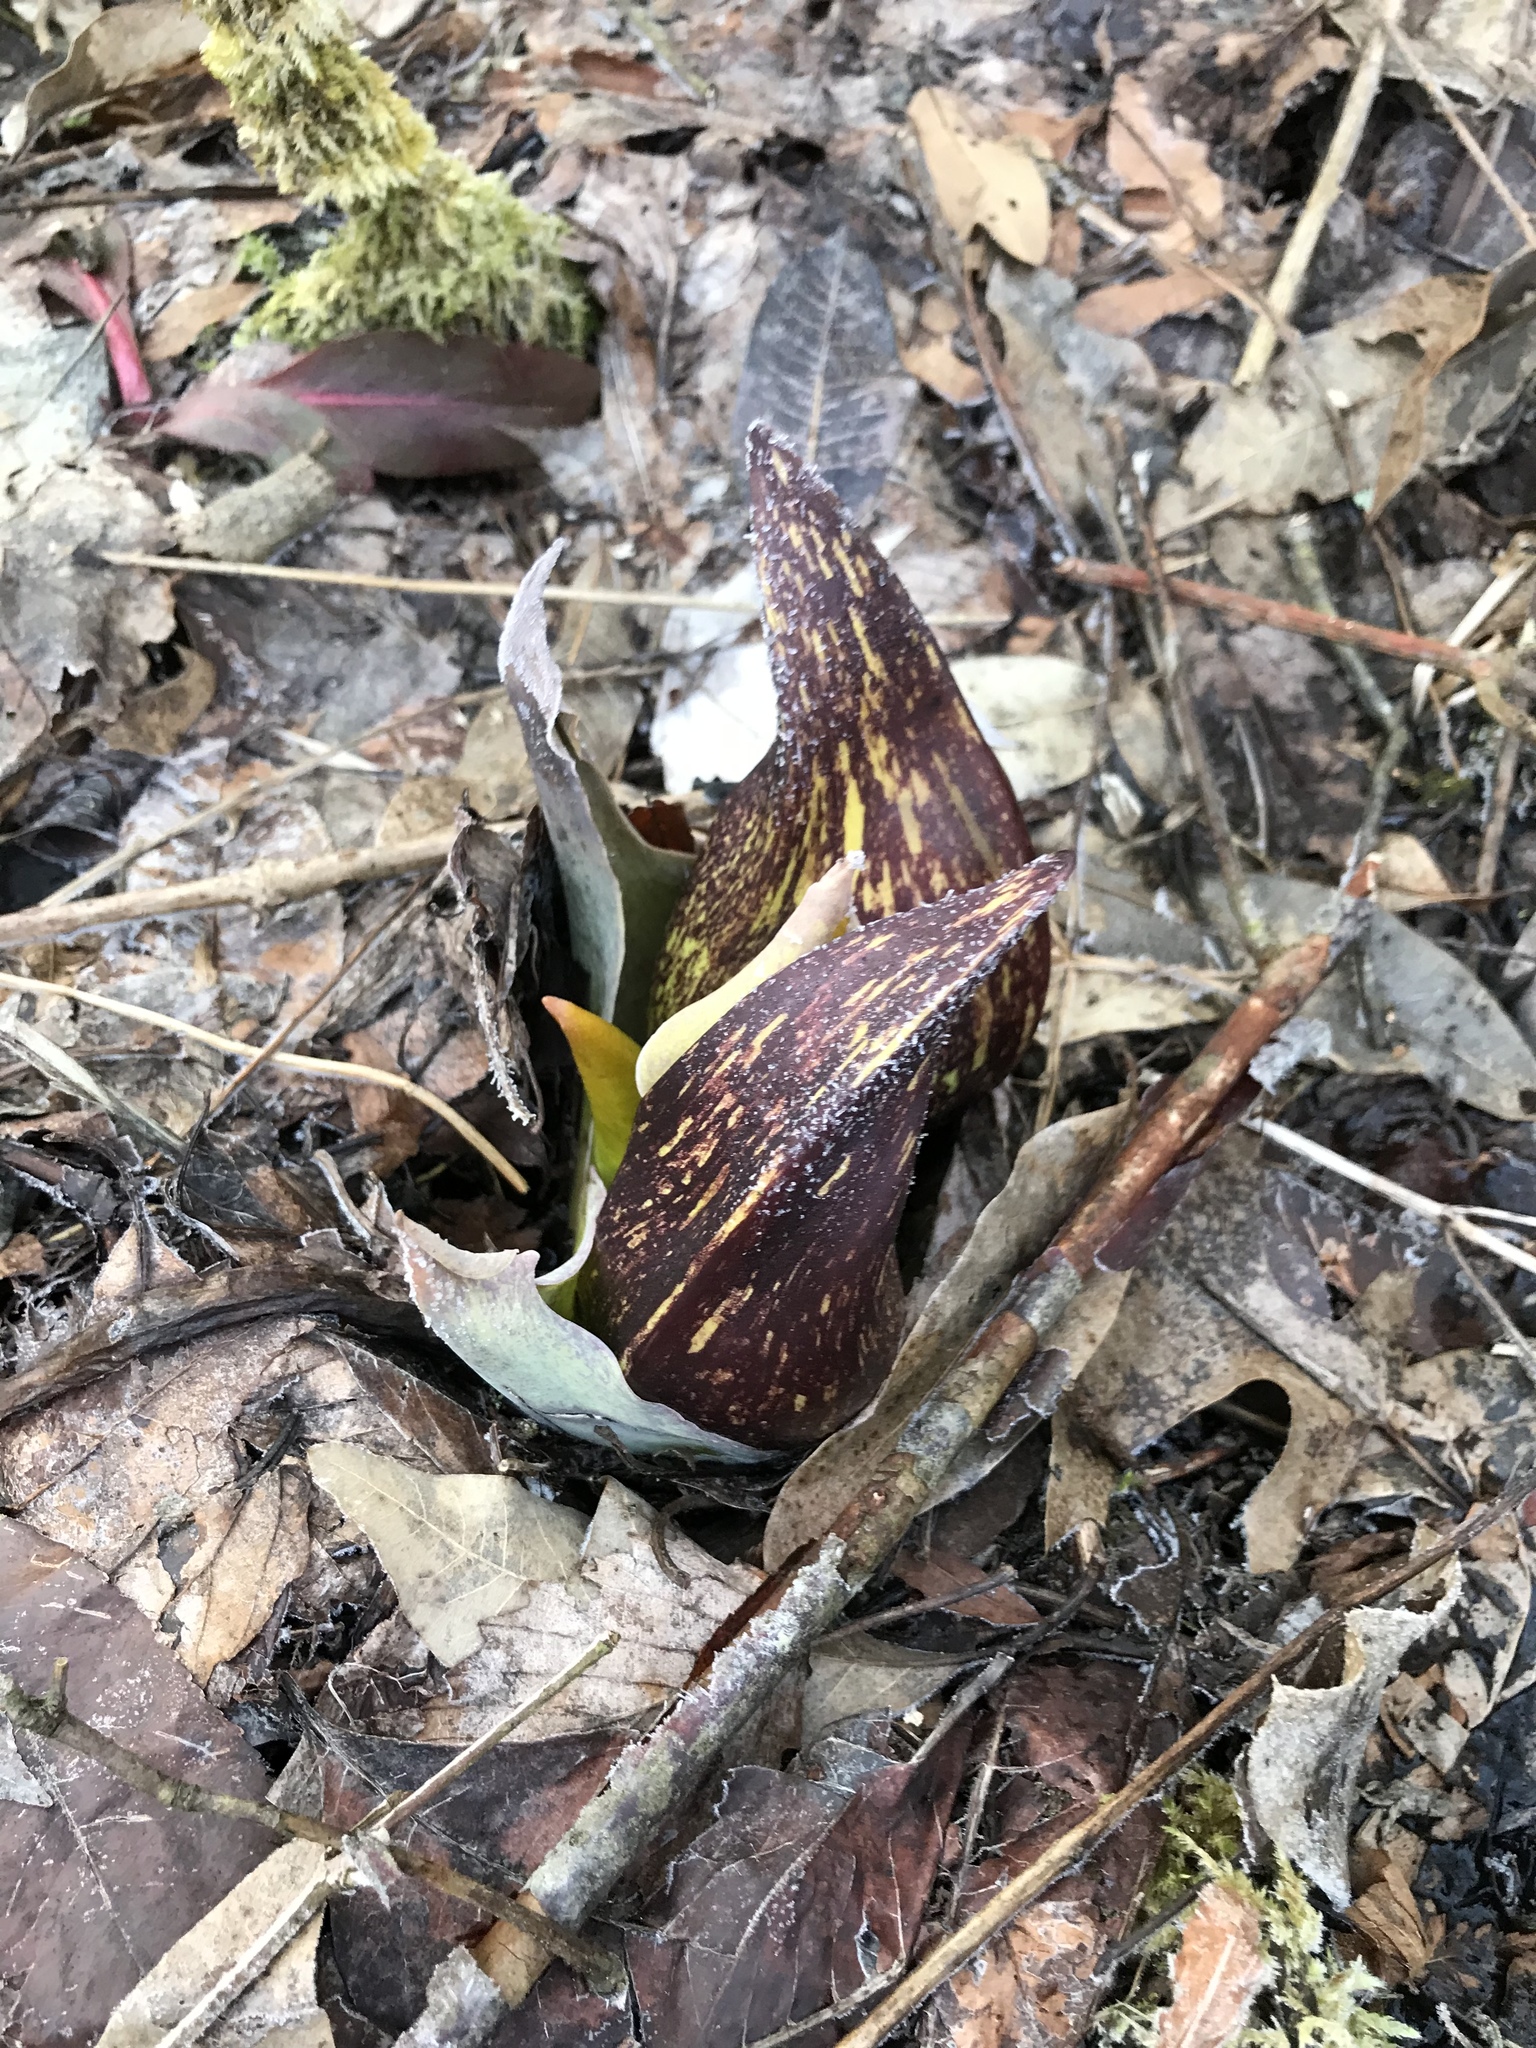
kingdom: Plantae
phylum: Tracheophyta
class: Liliopsida
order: Alismatales
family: Araceae
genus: Symplocarpus
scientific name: Symplocarpus foetidus
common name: Eastern skunk cabbage
